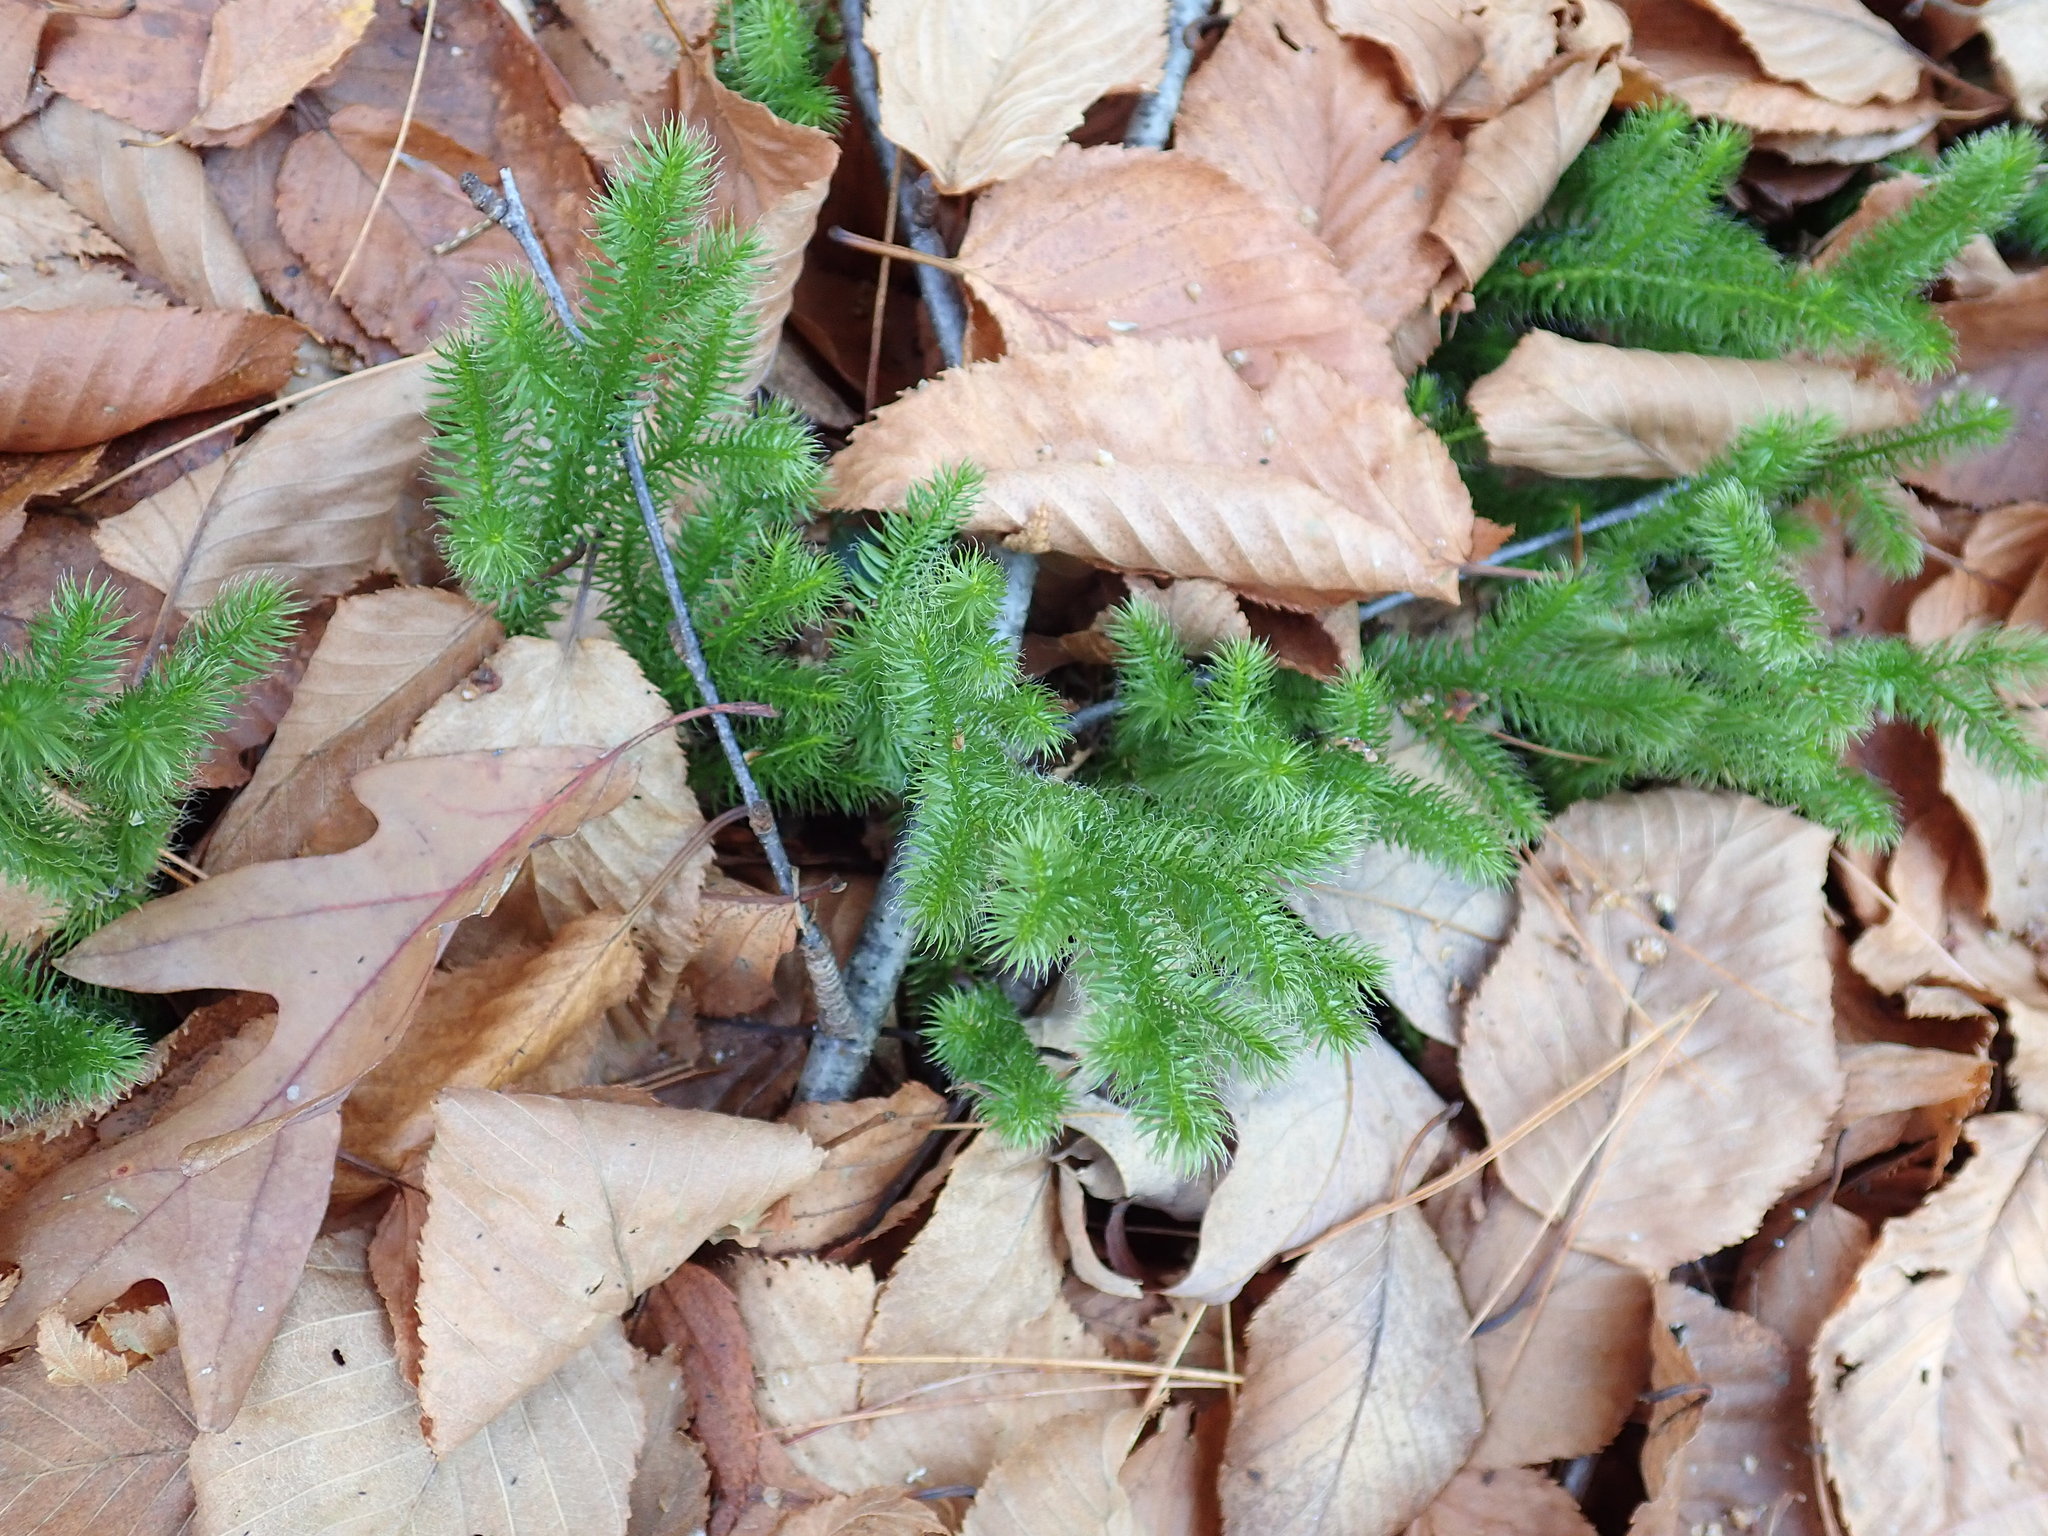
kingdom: Plantae
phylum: Tracheophyta
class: Lycopodiopsida
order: Lycopodiales
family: Lycopodiaceae
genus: Lycopodium
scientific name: Lycopodium clavatum
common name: Stag's-horn clubmoss
